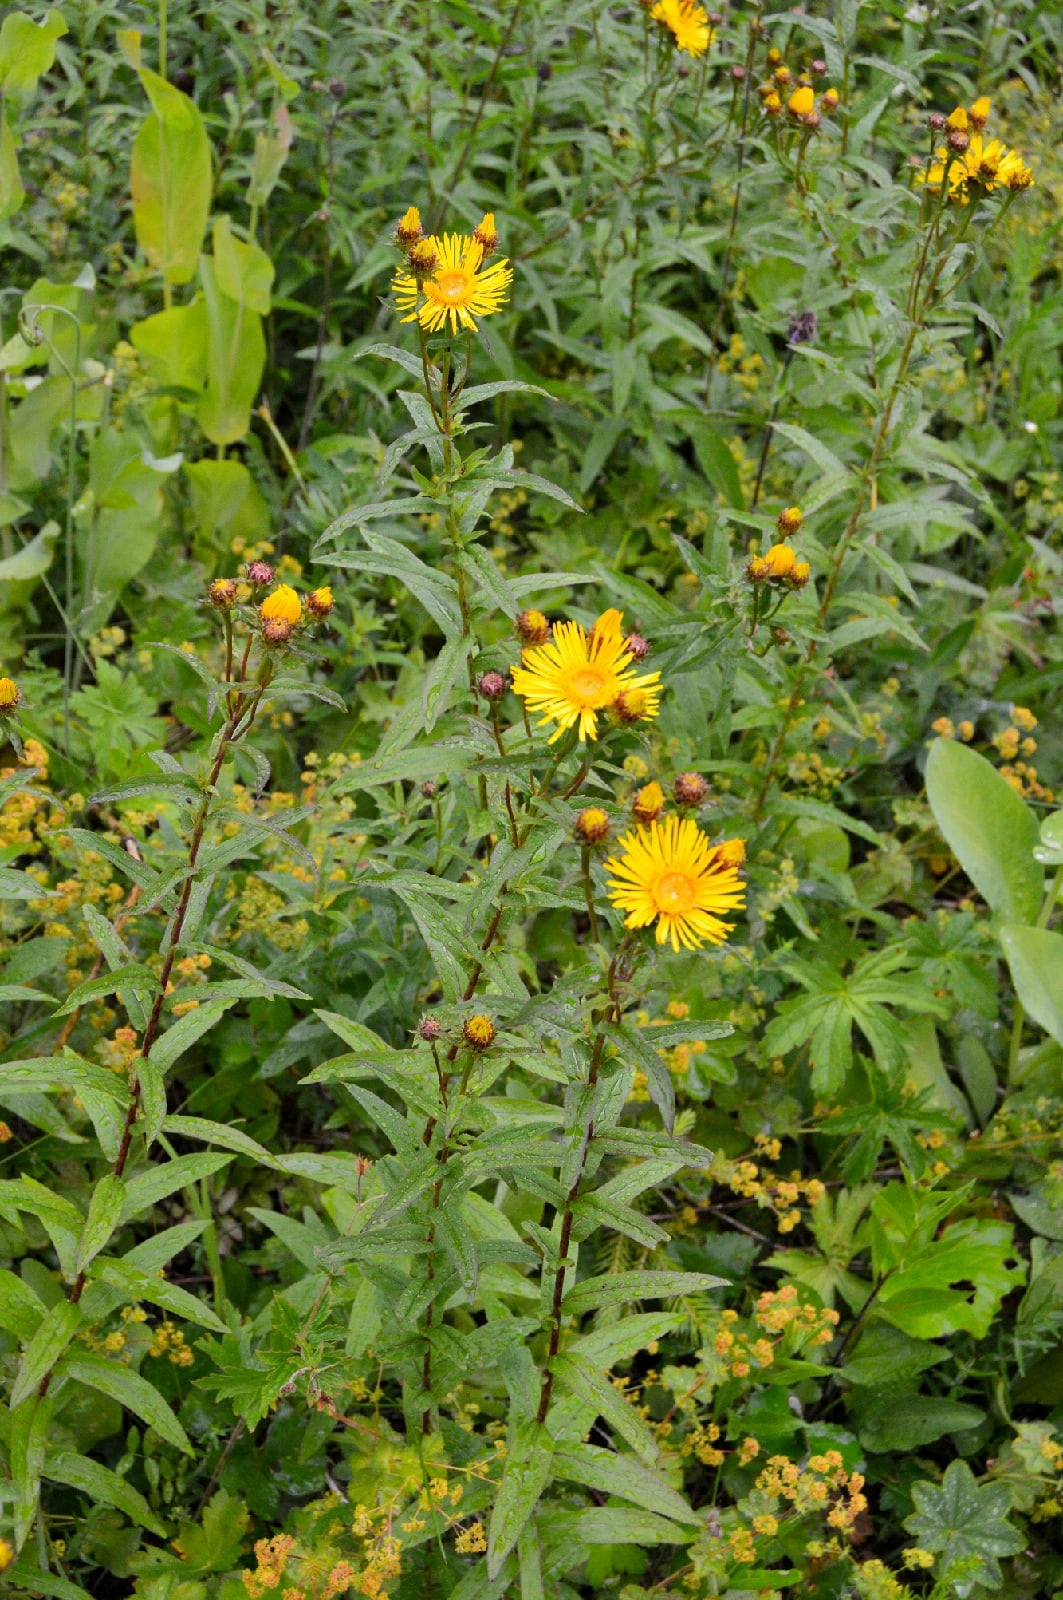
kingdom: Plantae
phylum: Tracheophyta
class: Magnoliopsida
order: Asterales
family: Asteraceae
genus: Pentanema
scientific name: Pentanema salicinum
